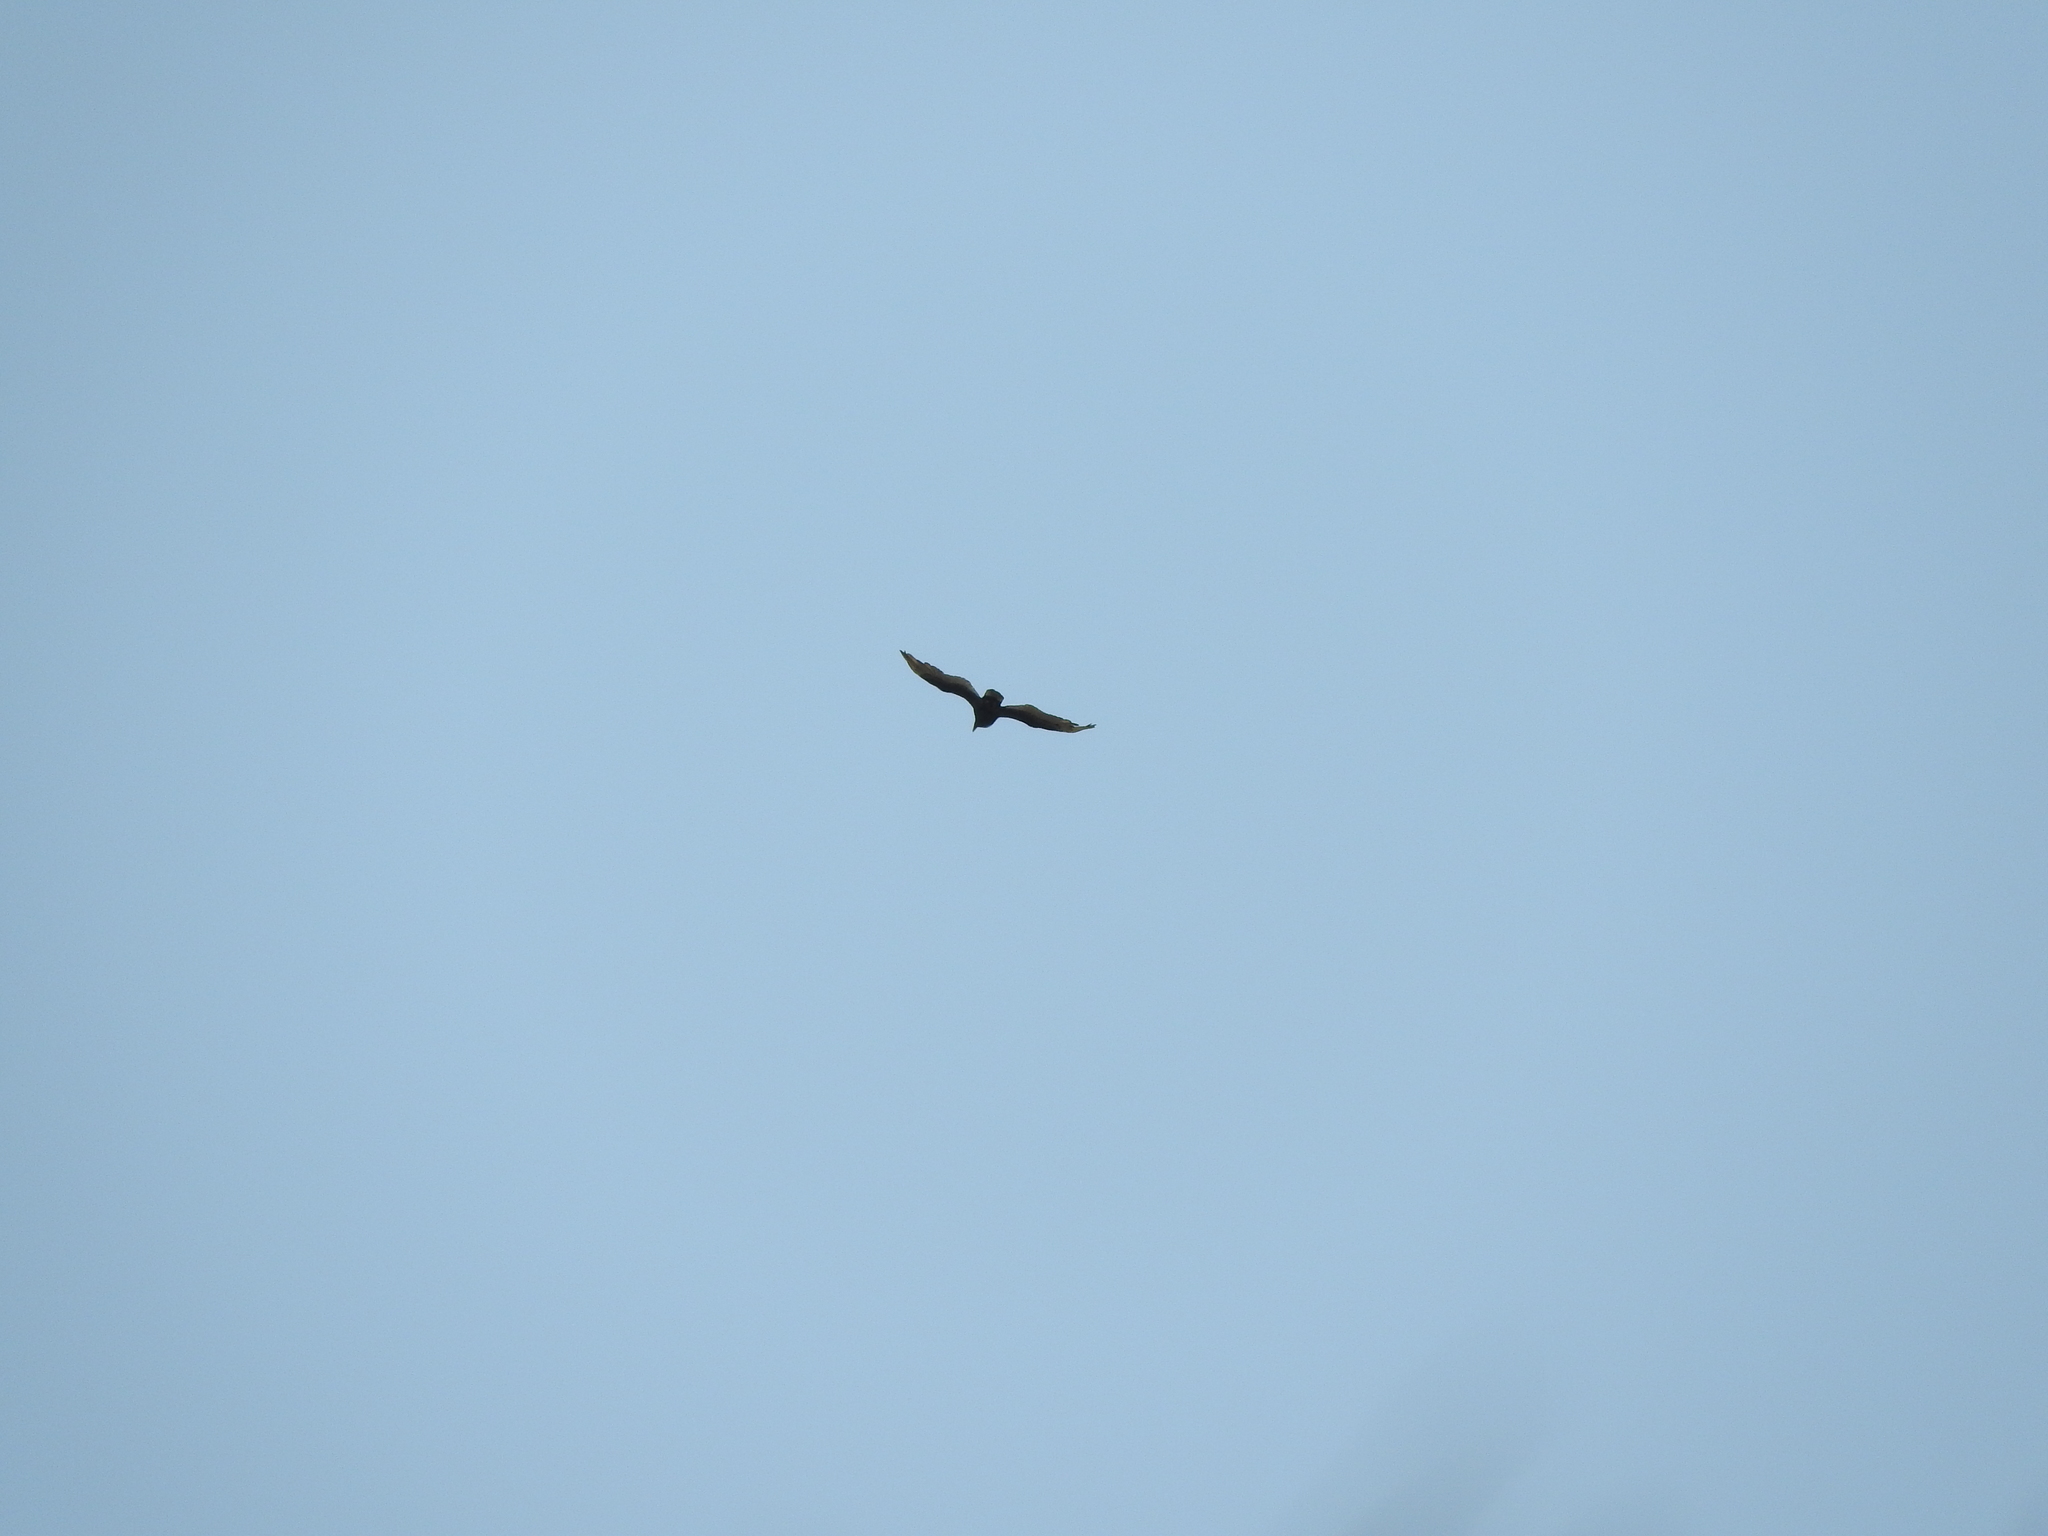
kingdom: Animalia
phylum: Chordata
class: Aves
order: Accipitriformes
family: Cathartidae
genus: Cathartes
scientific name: Cathartes aura
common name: Turkey vulture
